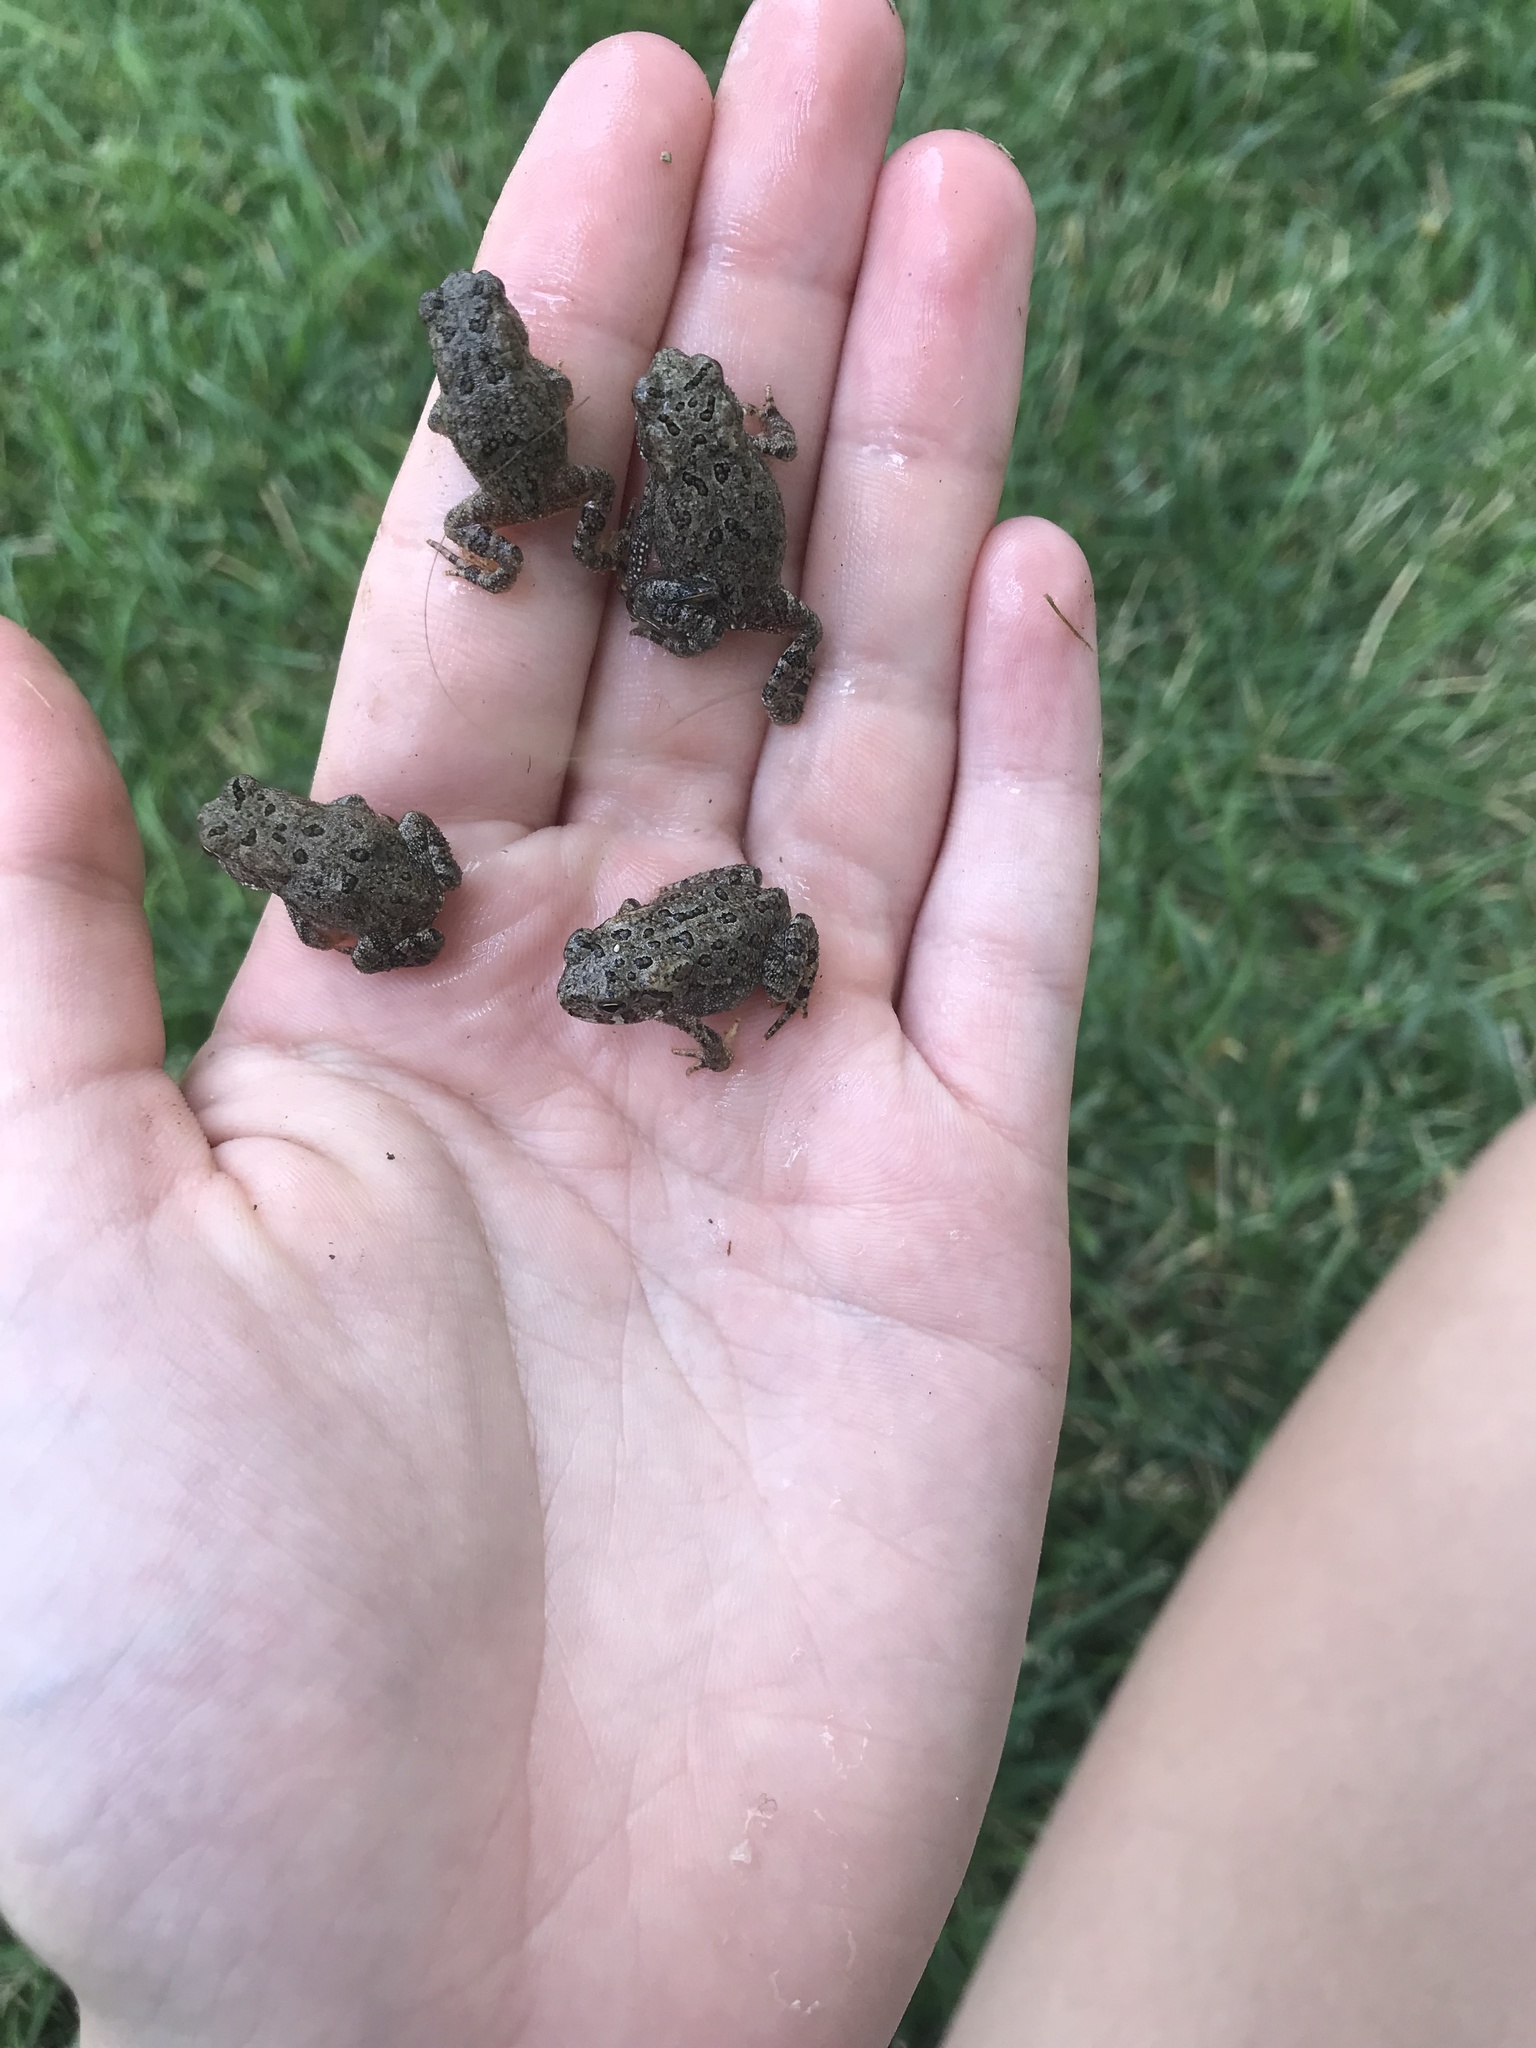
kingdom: Animalia
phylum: Chordata
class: Amphibia
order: Anura
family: Bufonidae
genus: Anaxyrus
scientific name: Anaxyrus americanus
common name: American toad
